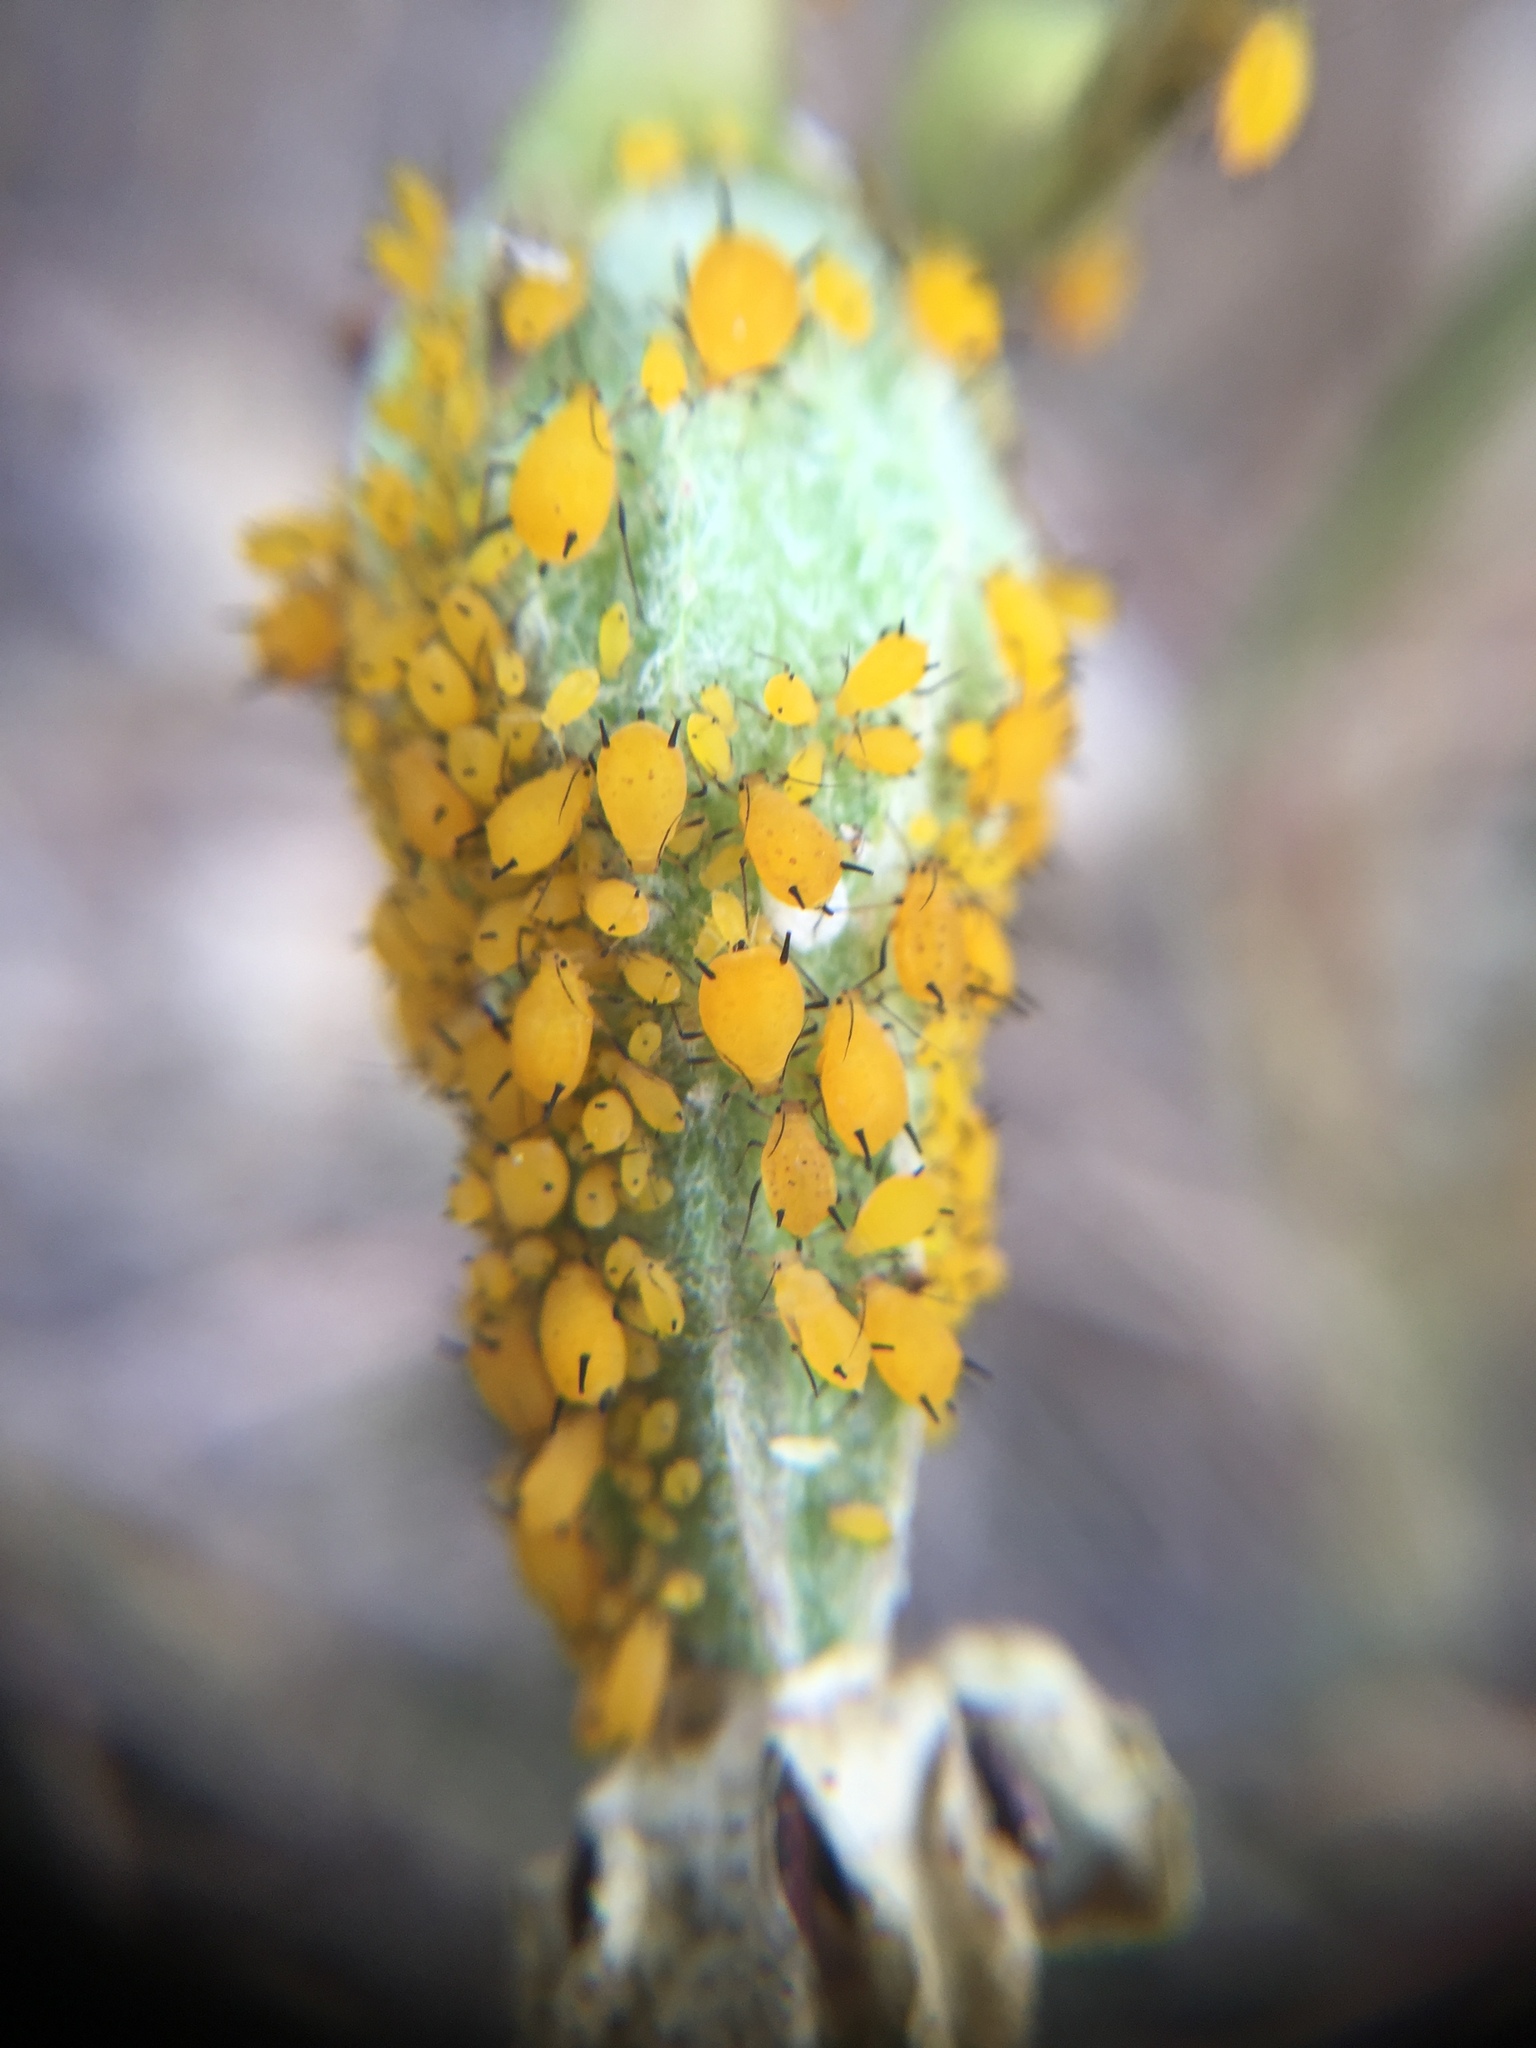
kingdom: Animalia
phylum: Arthropoda
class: Insecta
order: Hemiptera
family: Aphididae
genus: Aphis
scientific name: Aphis nerii
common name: Oleander aphid
